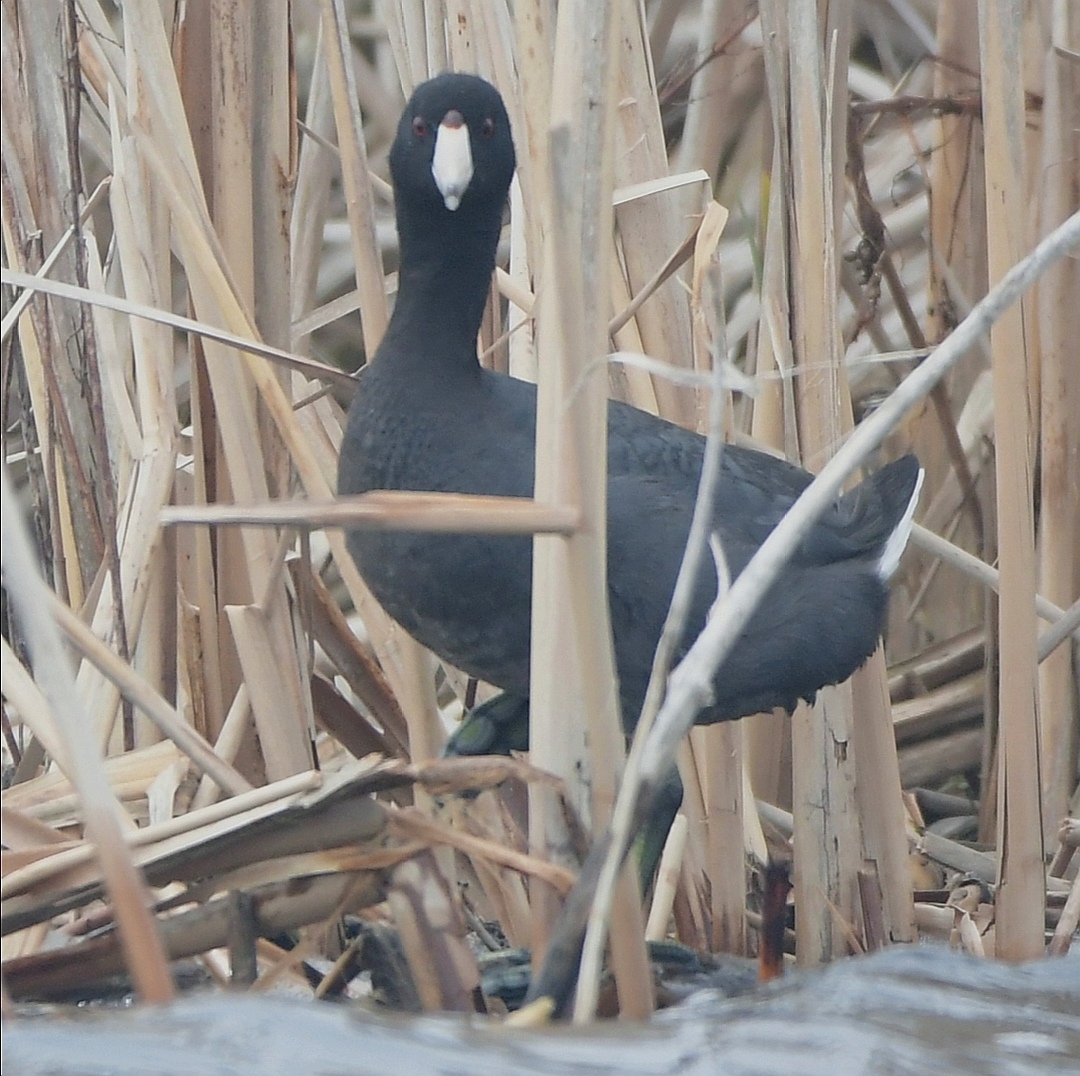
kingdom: Animalia
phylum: Chordata
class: Aves
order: Gruiformes
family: Rallidae
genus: Fulica
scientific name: Fulica americana
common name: American coot
